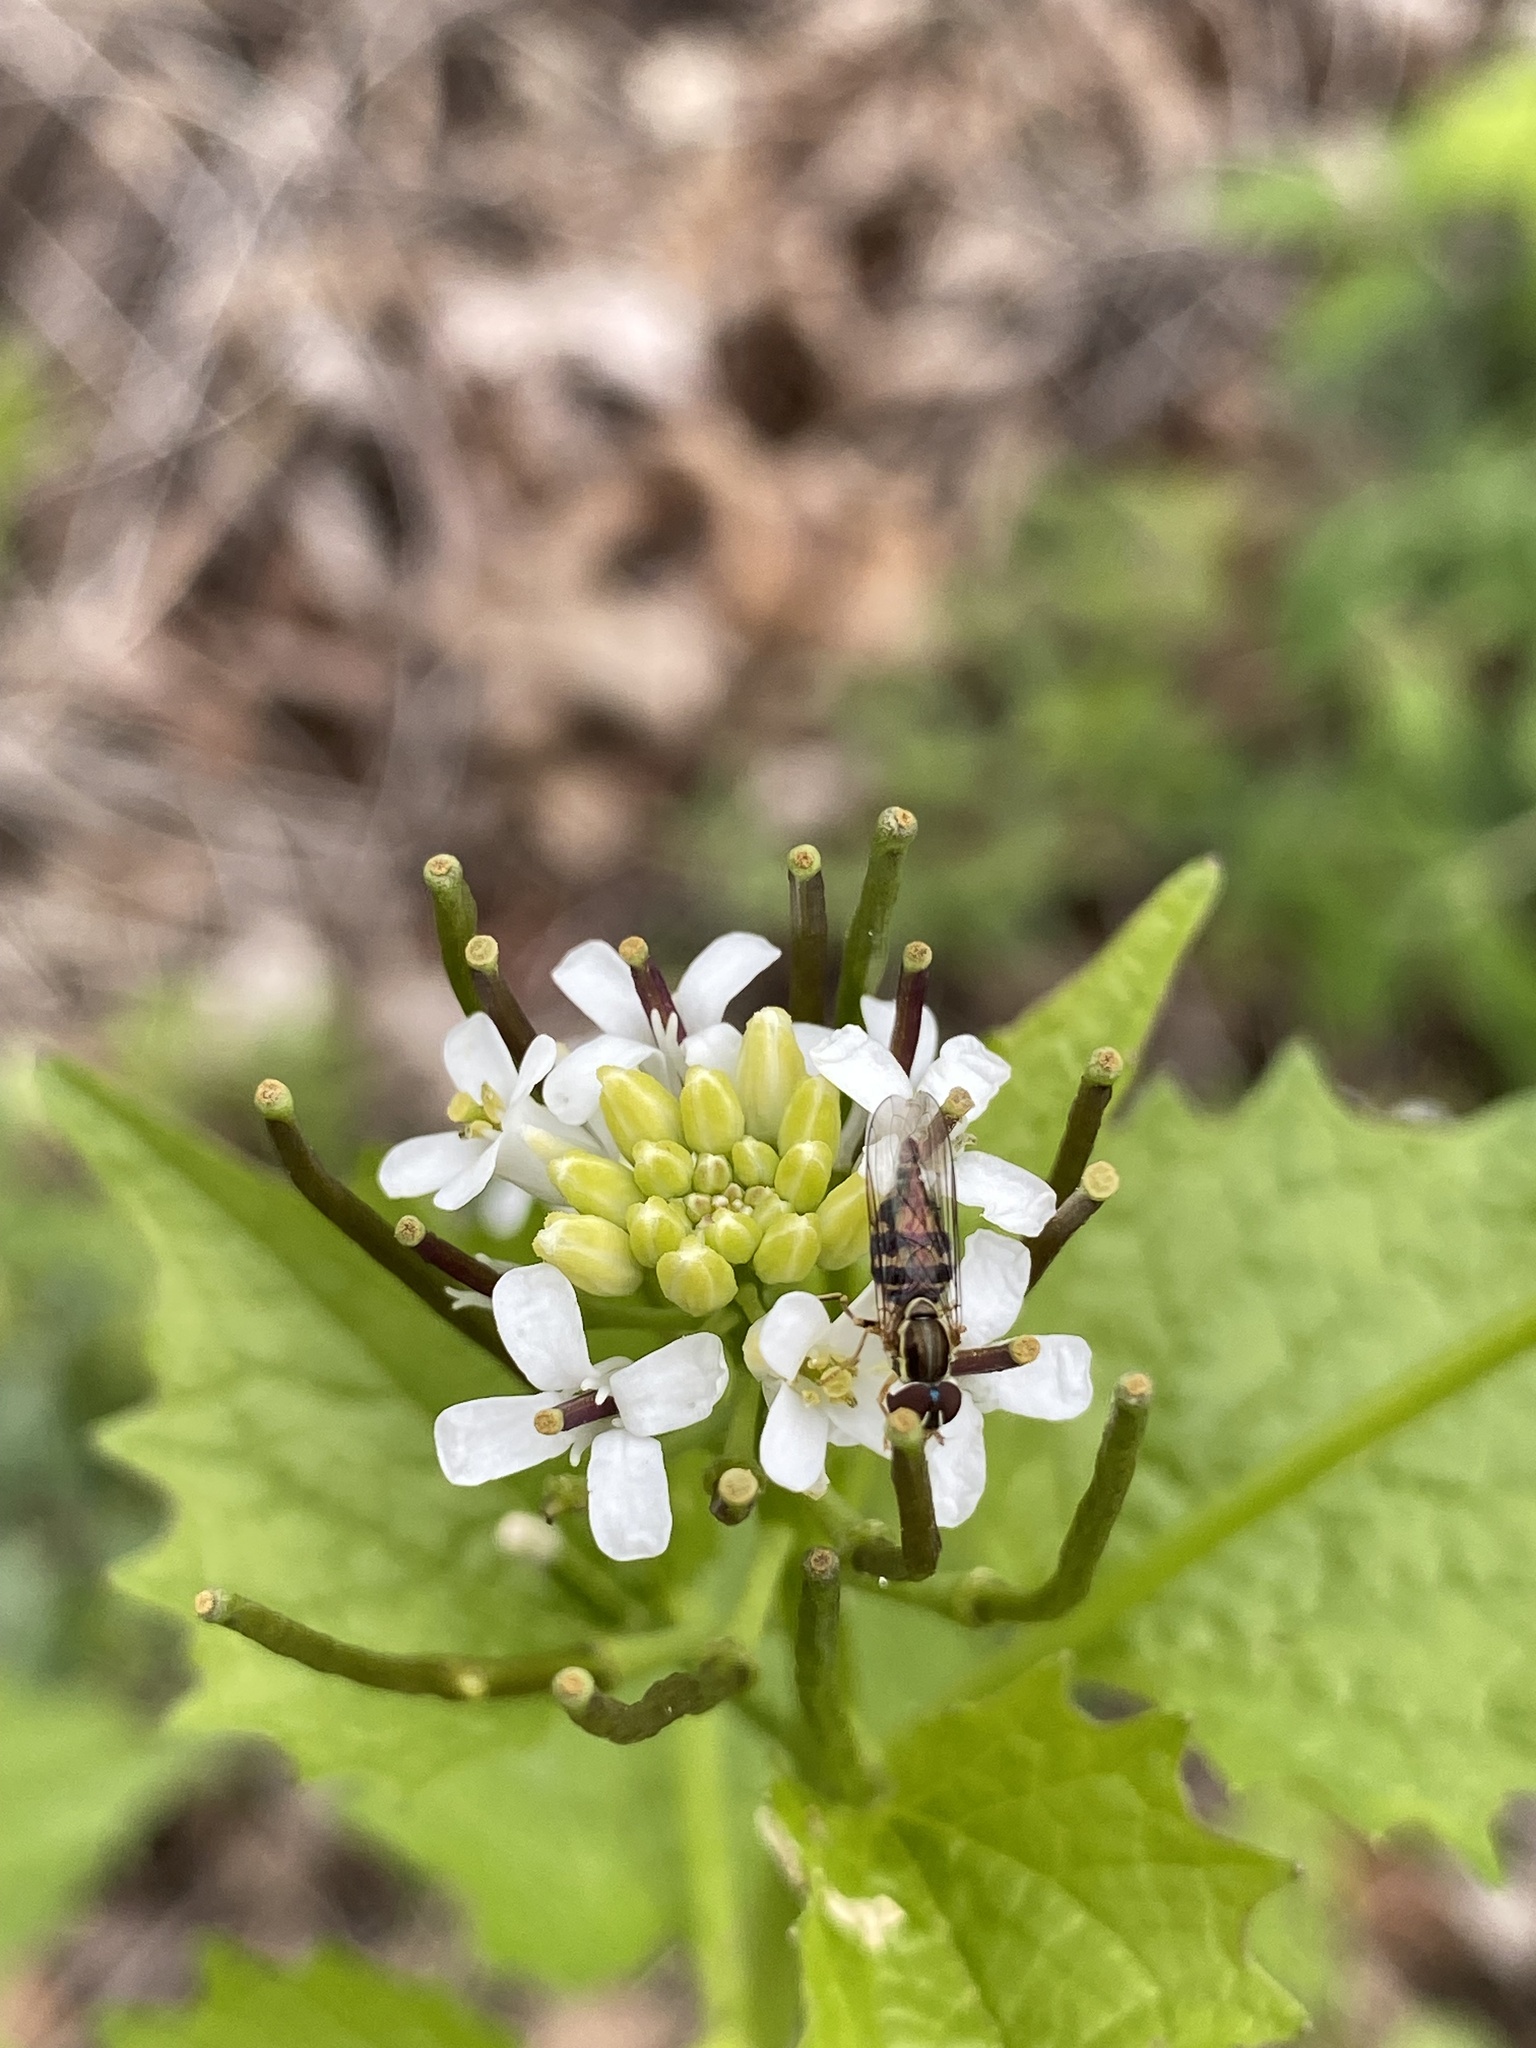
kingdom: Plantae
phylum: Tracheophyta
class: Magnoliopsida
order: Brassicales
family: Brassicaceae
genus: Alliaria
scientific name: Alliaria petiolata
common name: Garlic mustard
